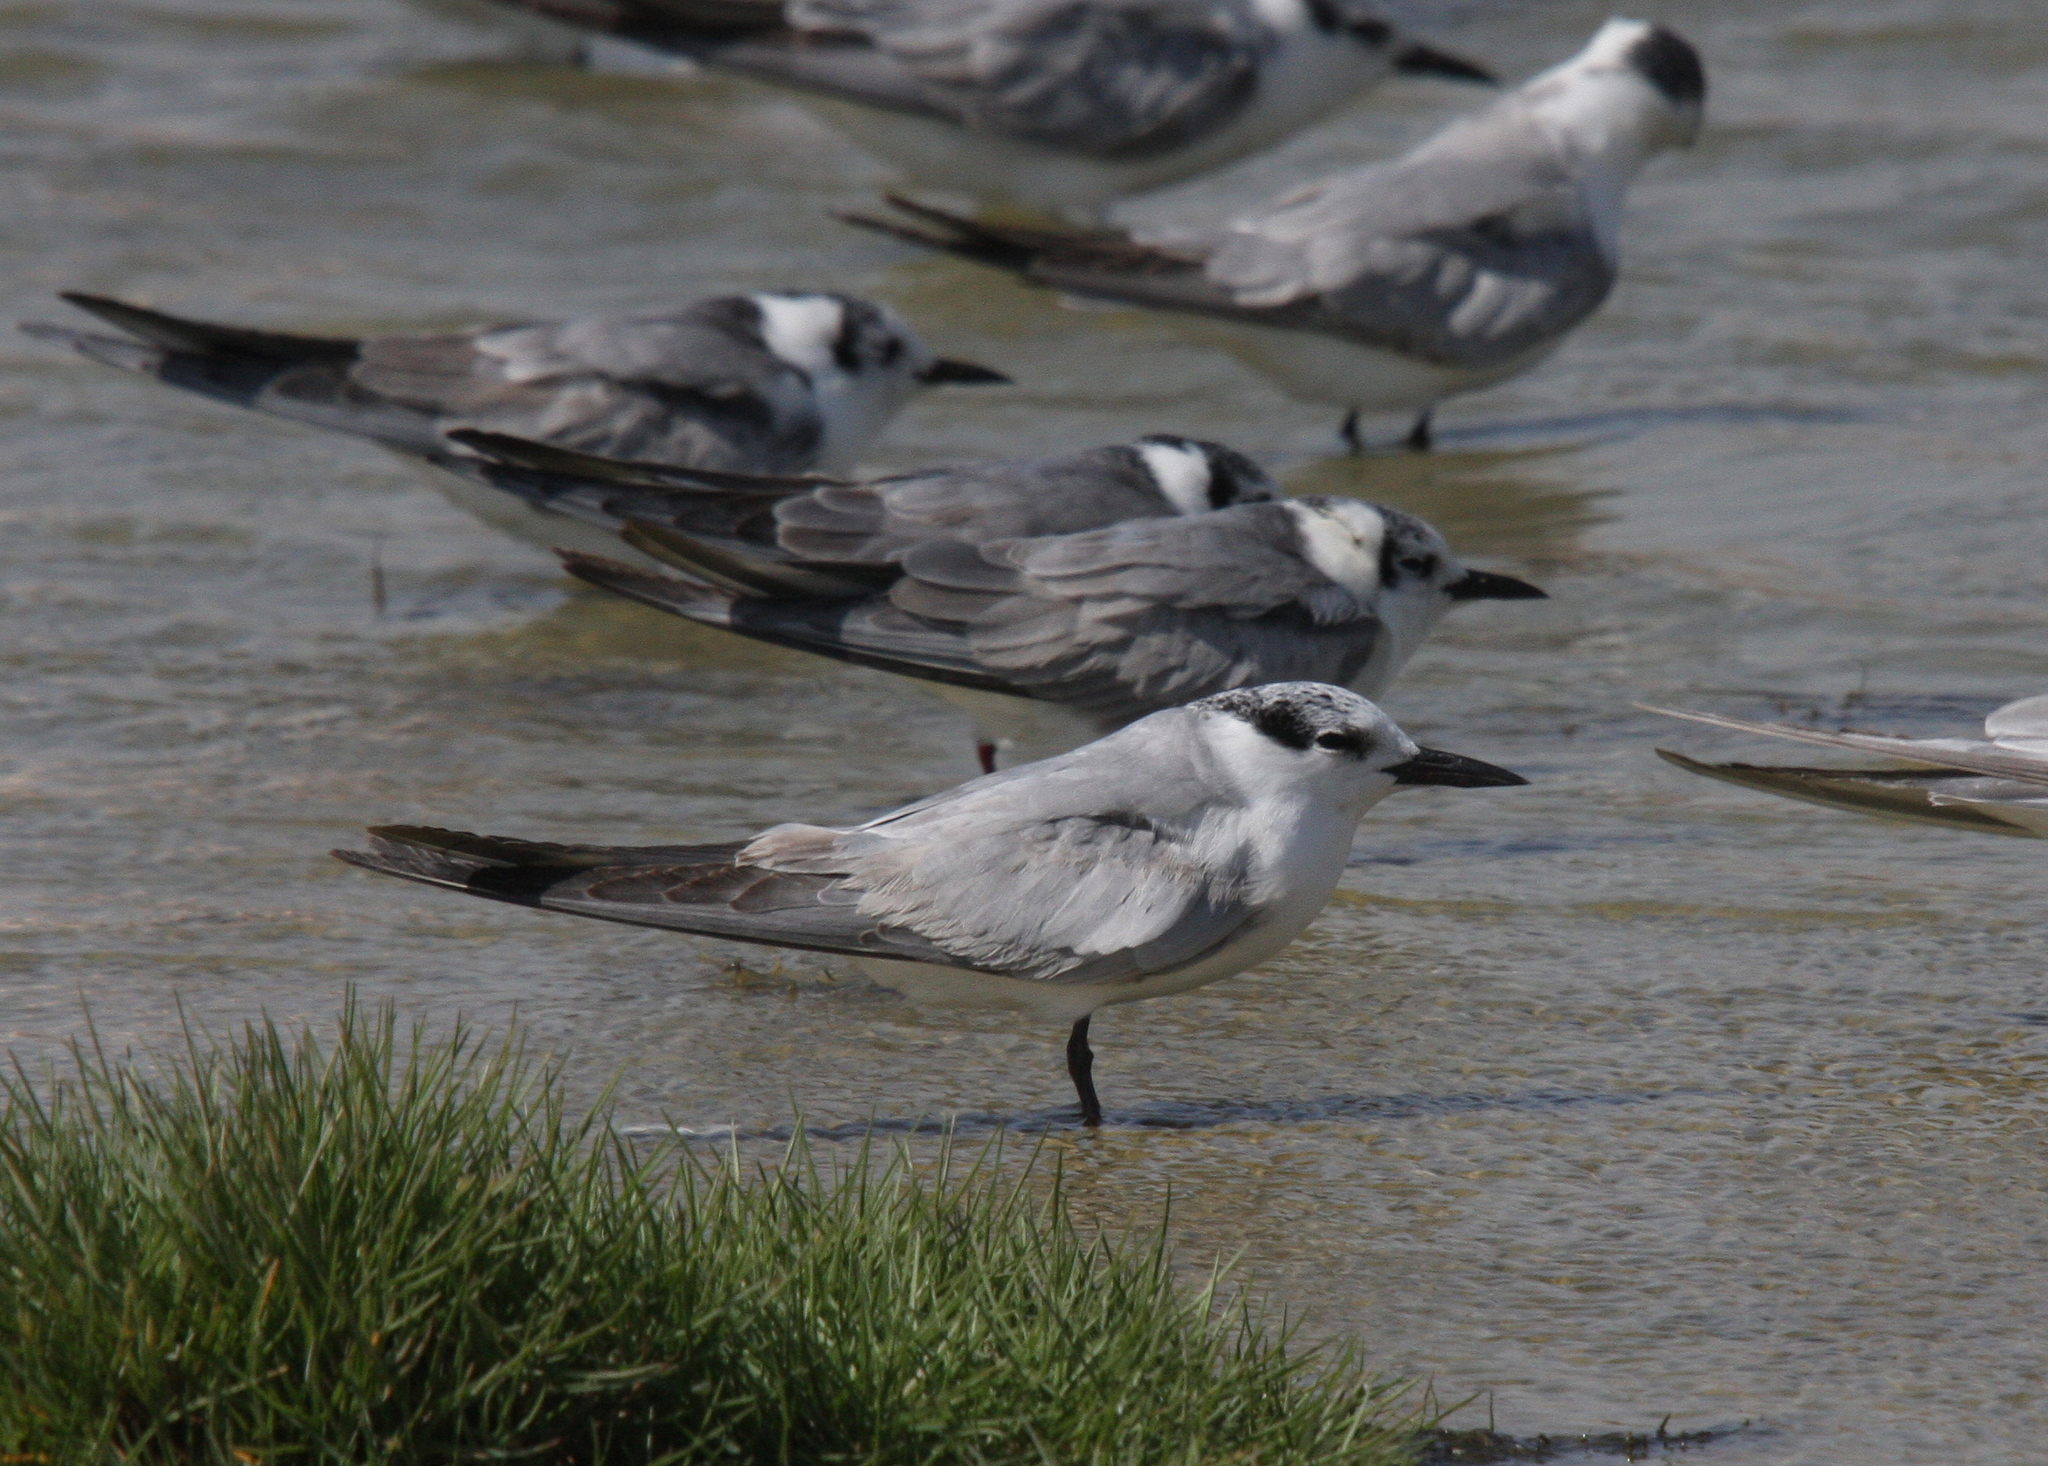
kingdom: Animalia
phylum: Chordata
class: Aves
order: Charadriiformes
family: Laridae
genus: Chlidonias
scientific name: Chlidonias hybrida
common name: Whiskered tern
